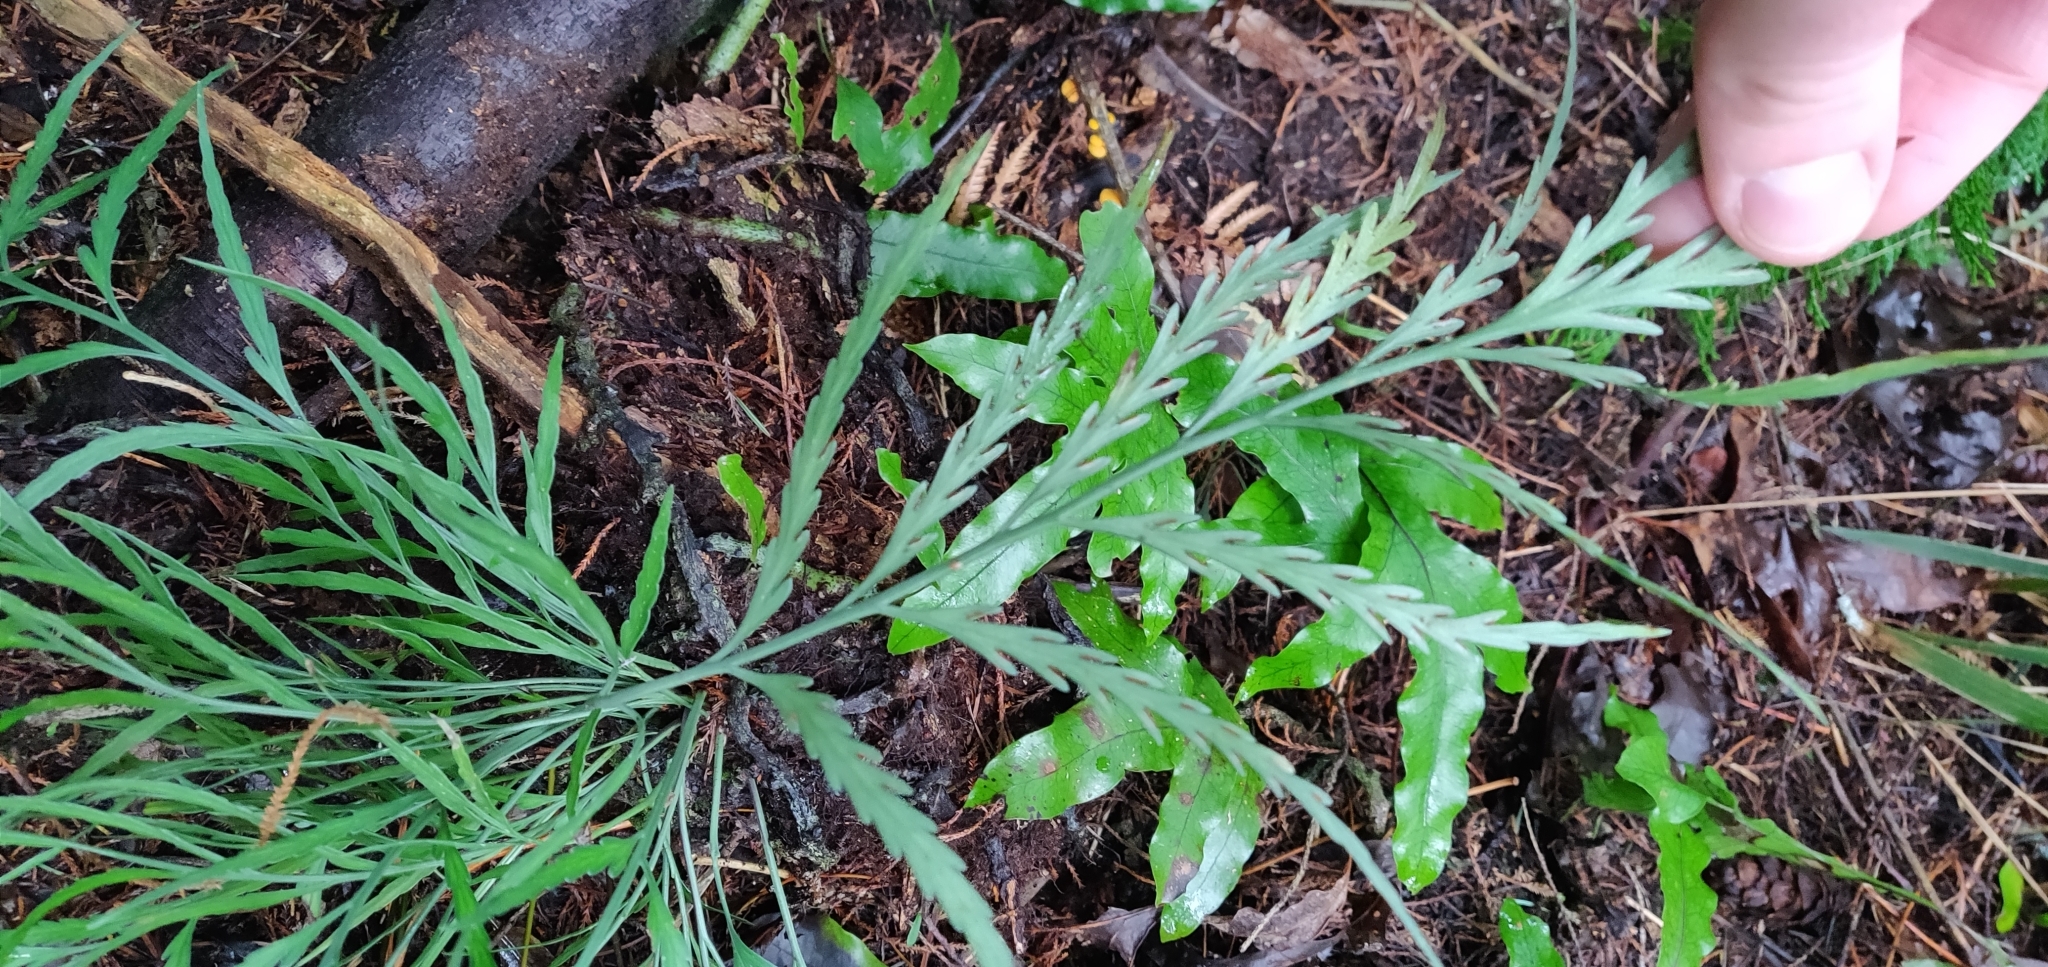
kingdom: Plantae
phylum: Tracheophyta
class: Polypodiopsida
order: Polypodiales
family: Aspleniaceae
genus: Asplenium
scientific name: Asplenium flaccidum
